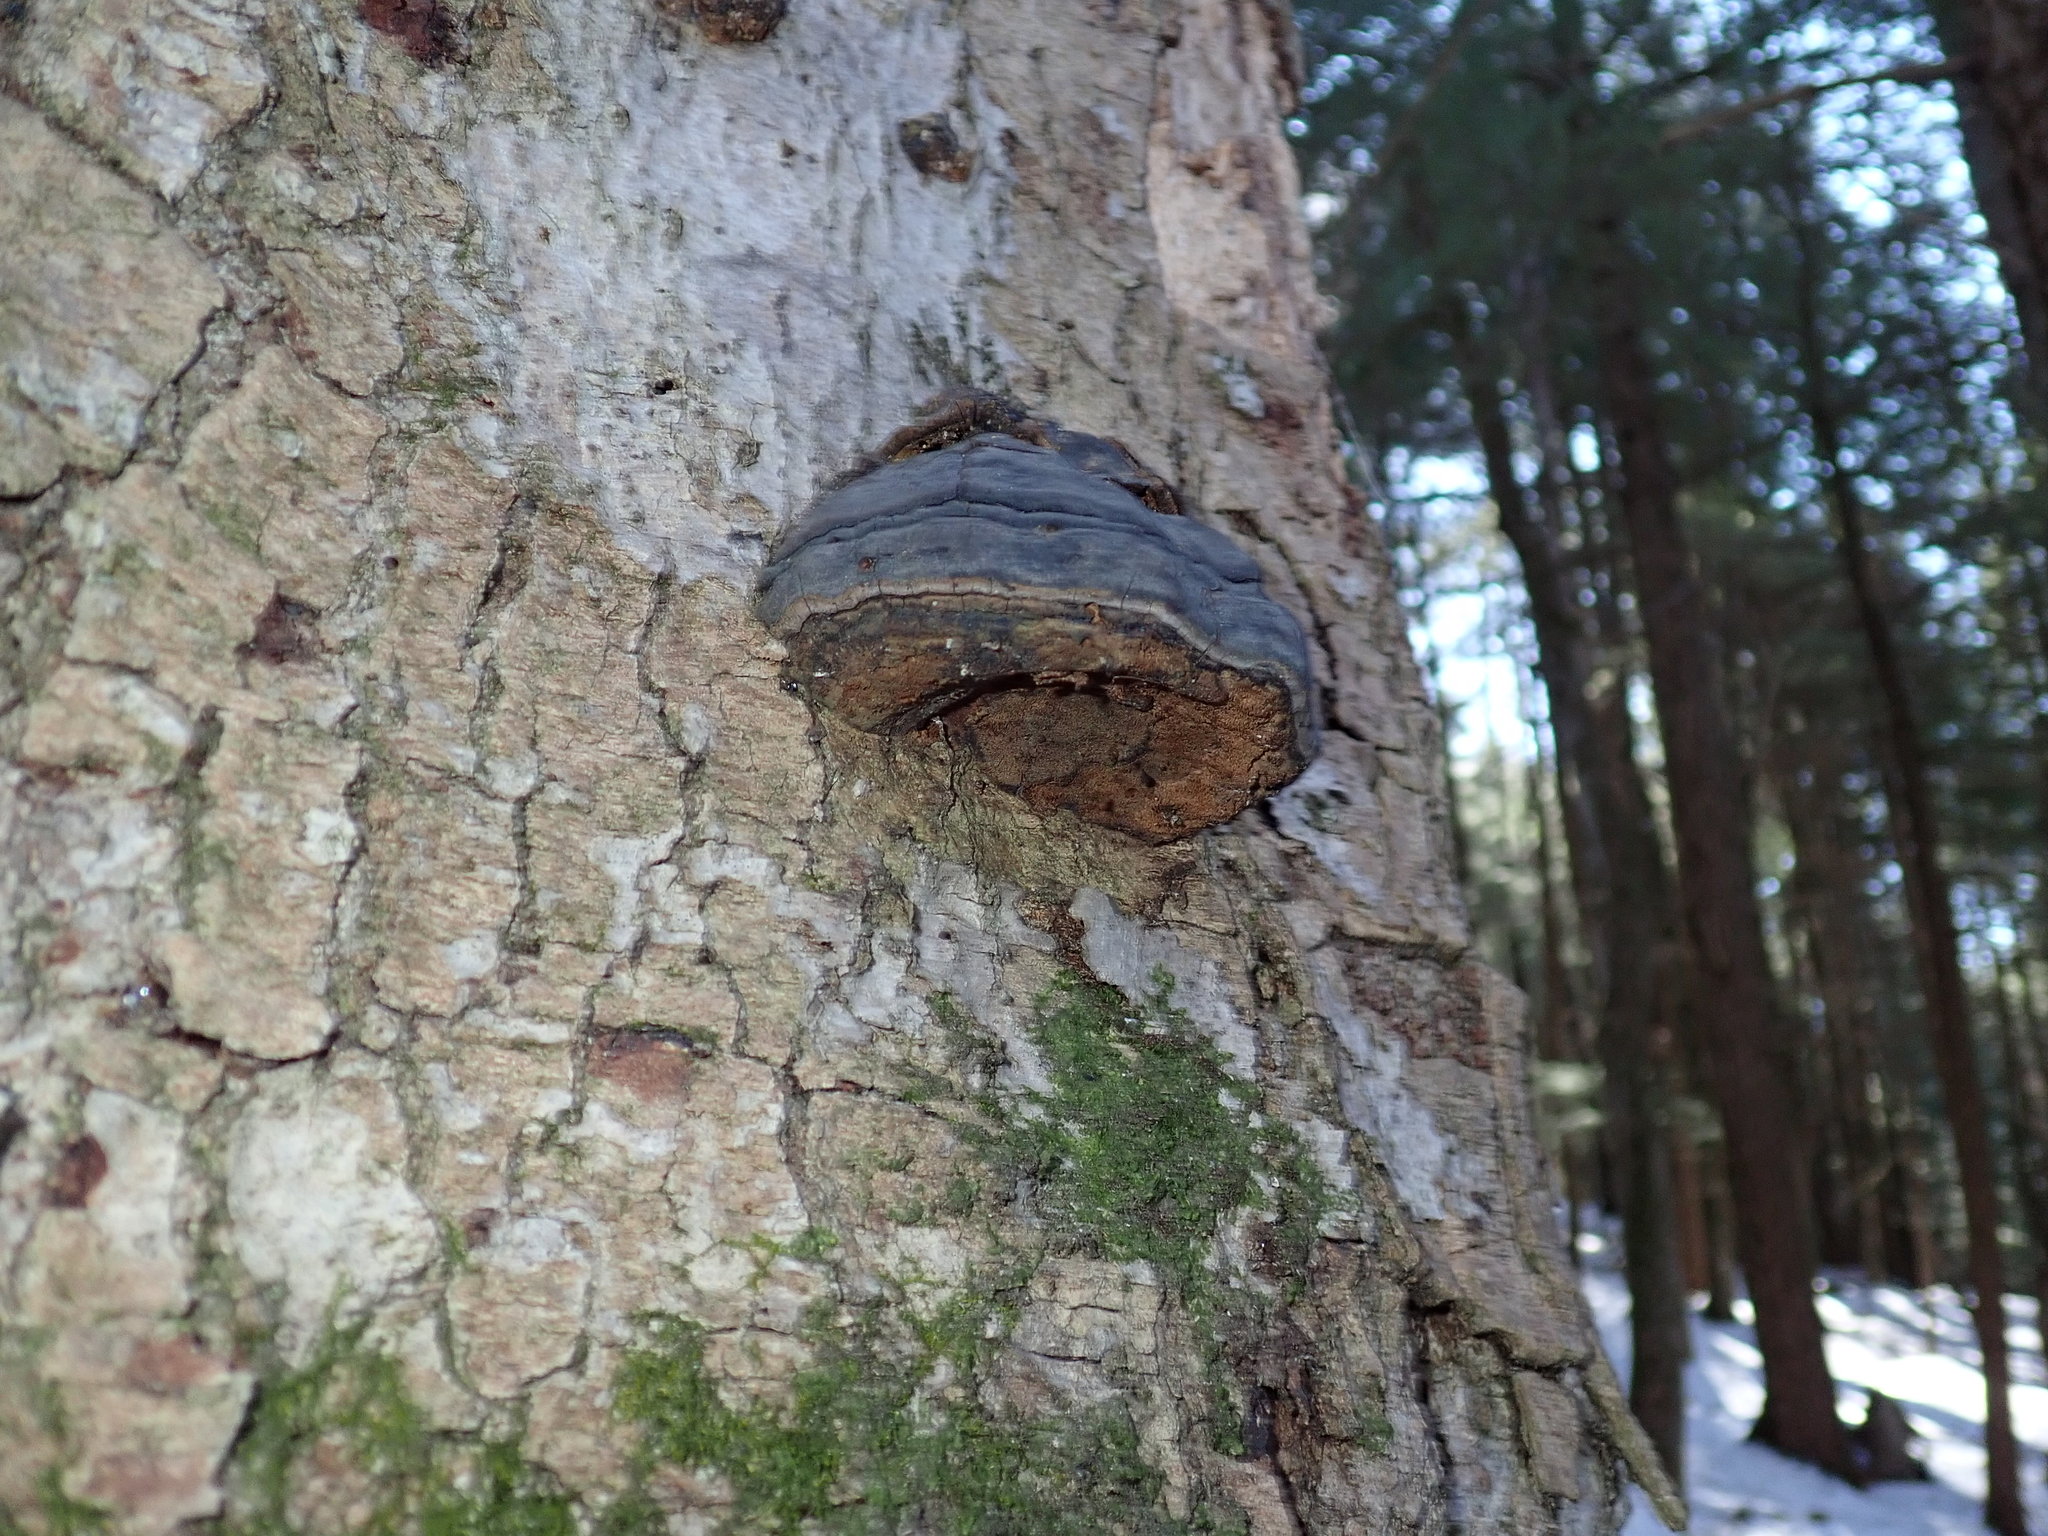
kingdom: Fungi
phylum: Basidiomycota
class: Agaricomycetes
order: Polyporales
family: Polyporaceae
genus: Fomes
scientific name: Fomes fomentarius
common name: Hoof fungus
